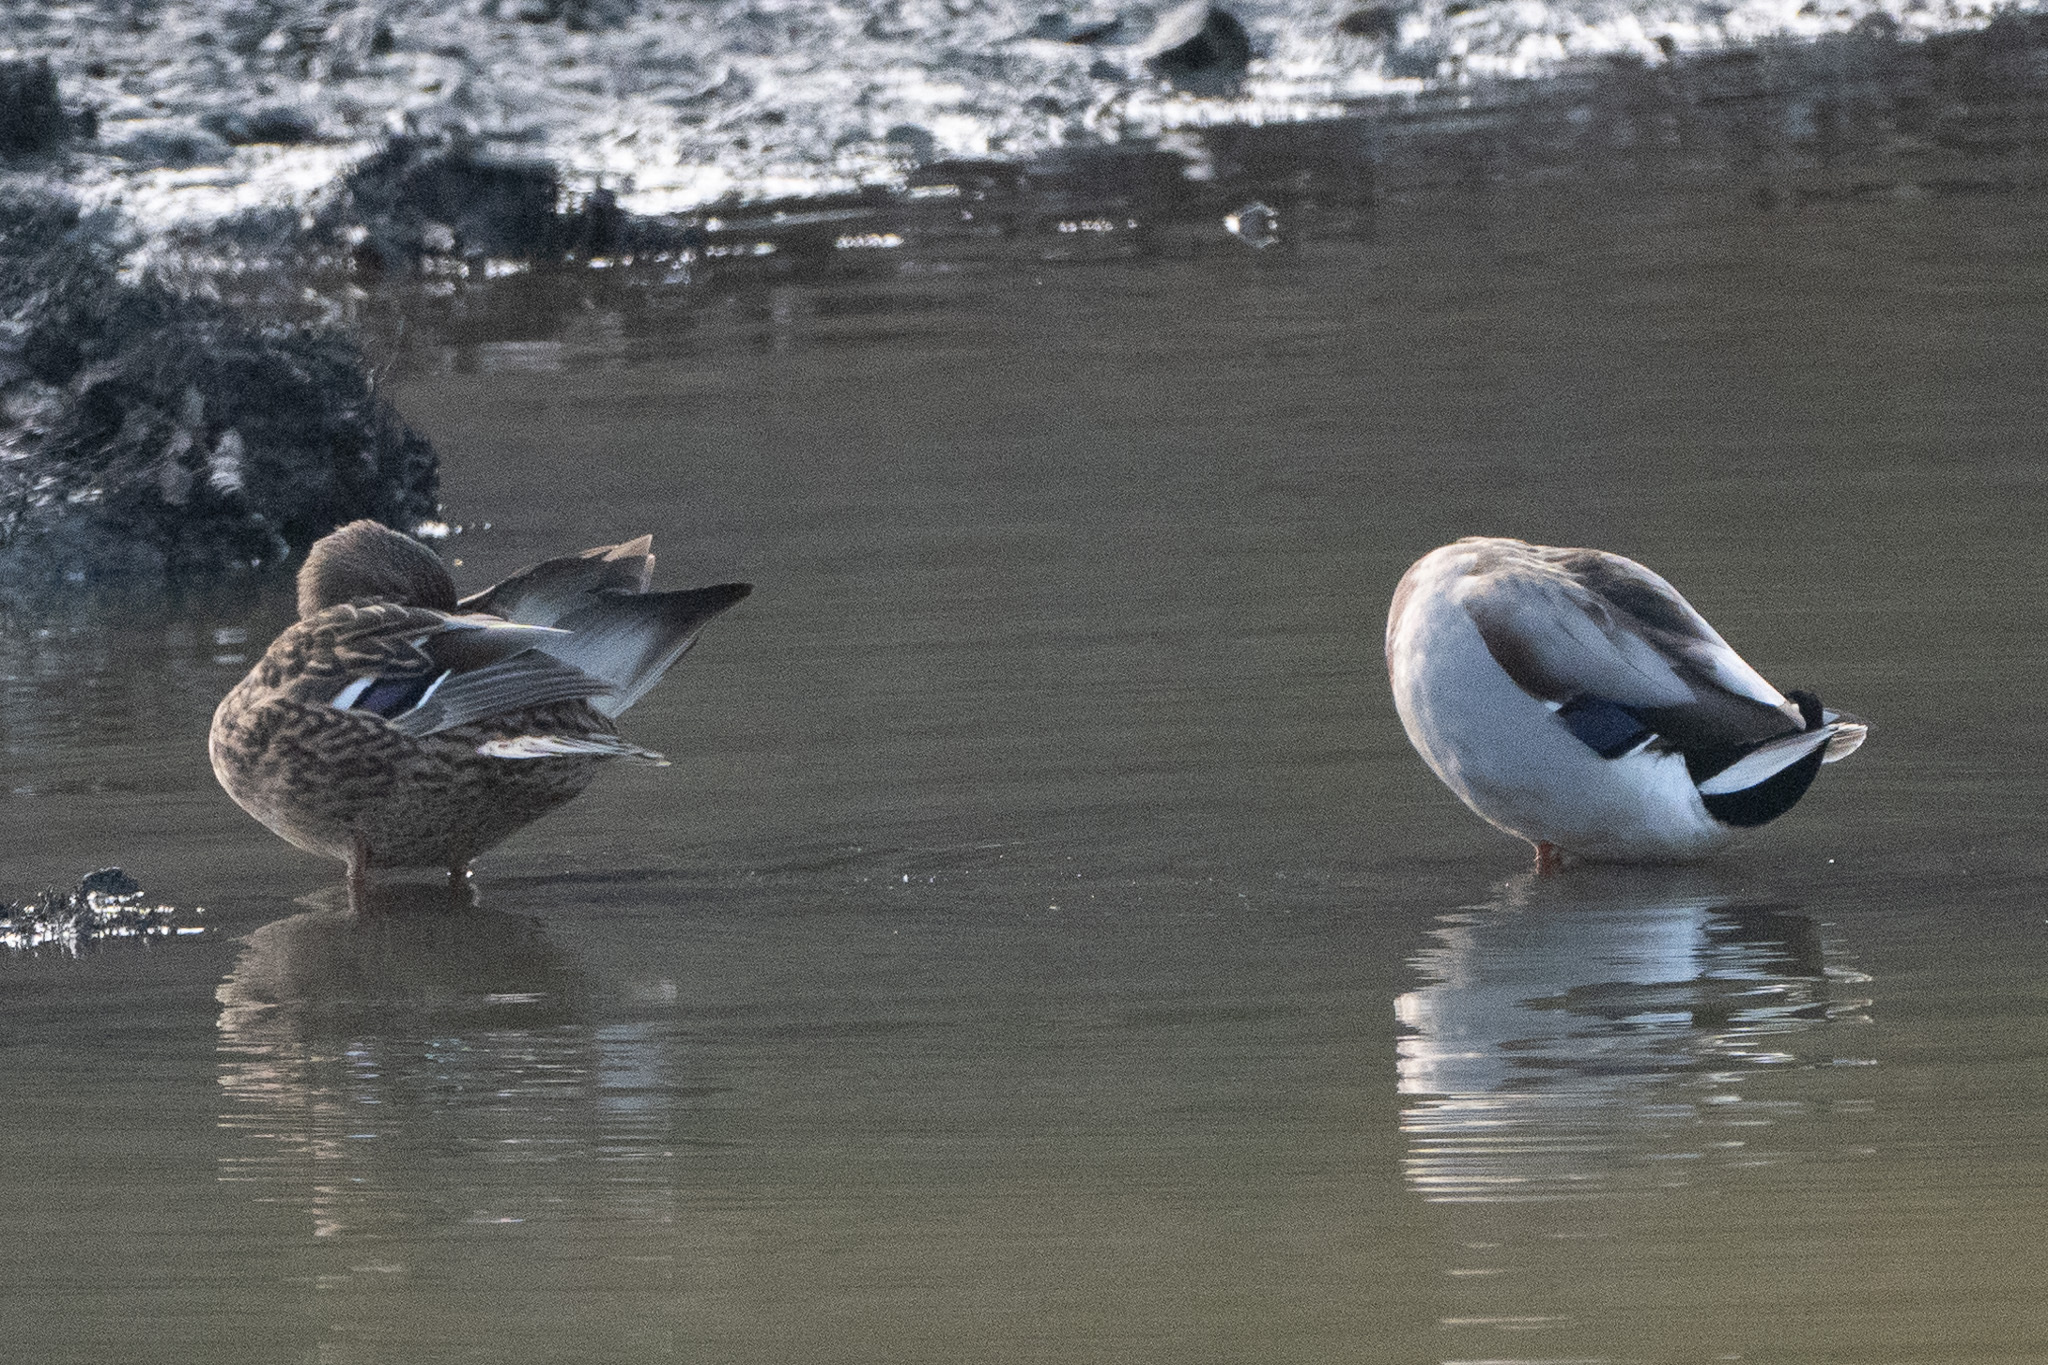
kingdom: Animalia
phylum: Chordata
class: Aves
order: Anseriformes
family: Anatidae
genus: Anas
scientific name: Anas platyrhynchos
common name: Mallard
